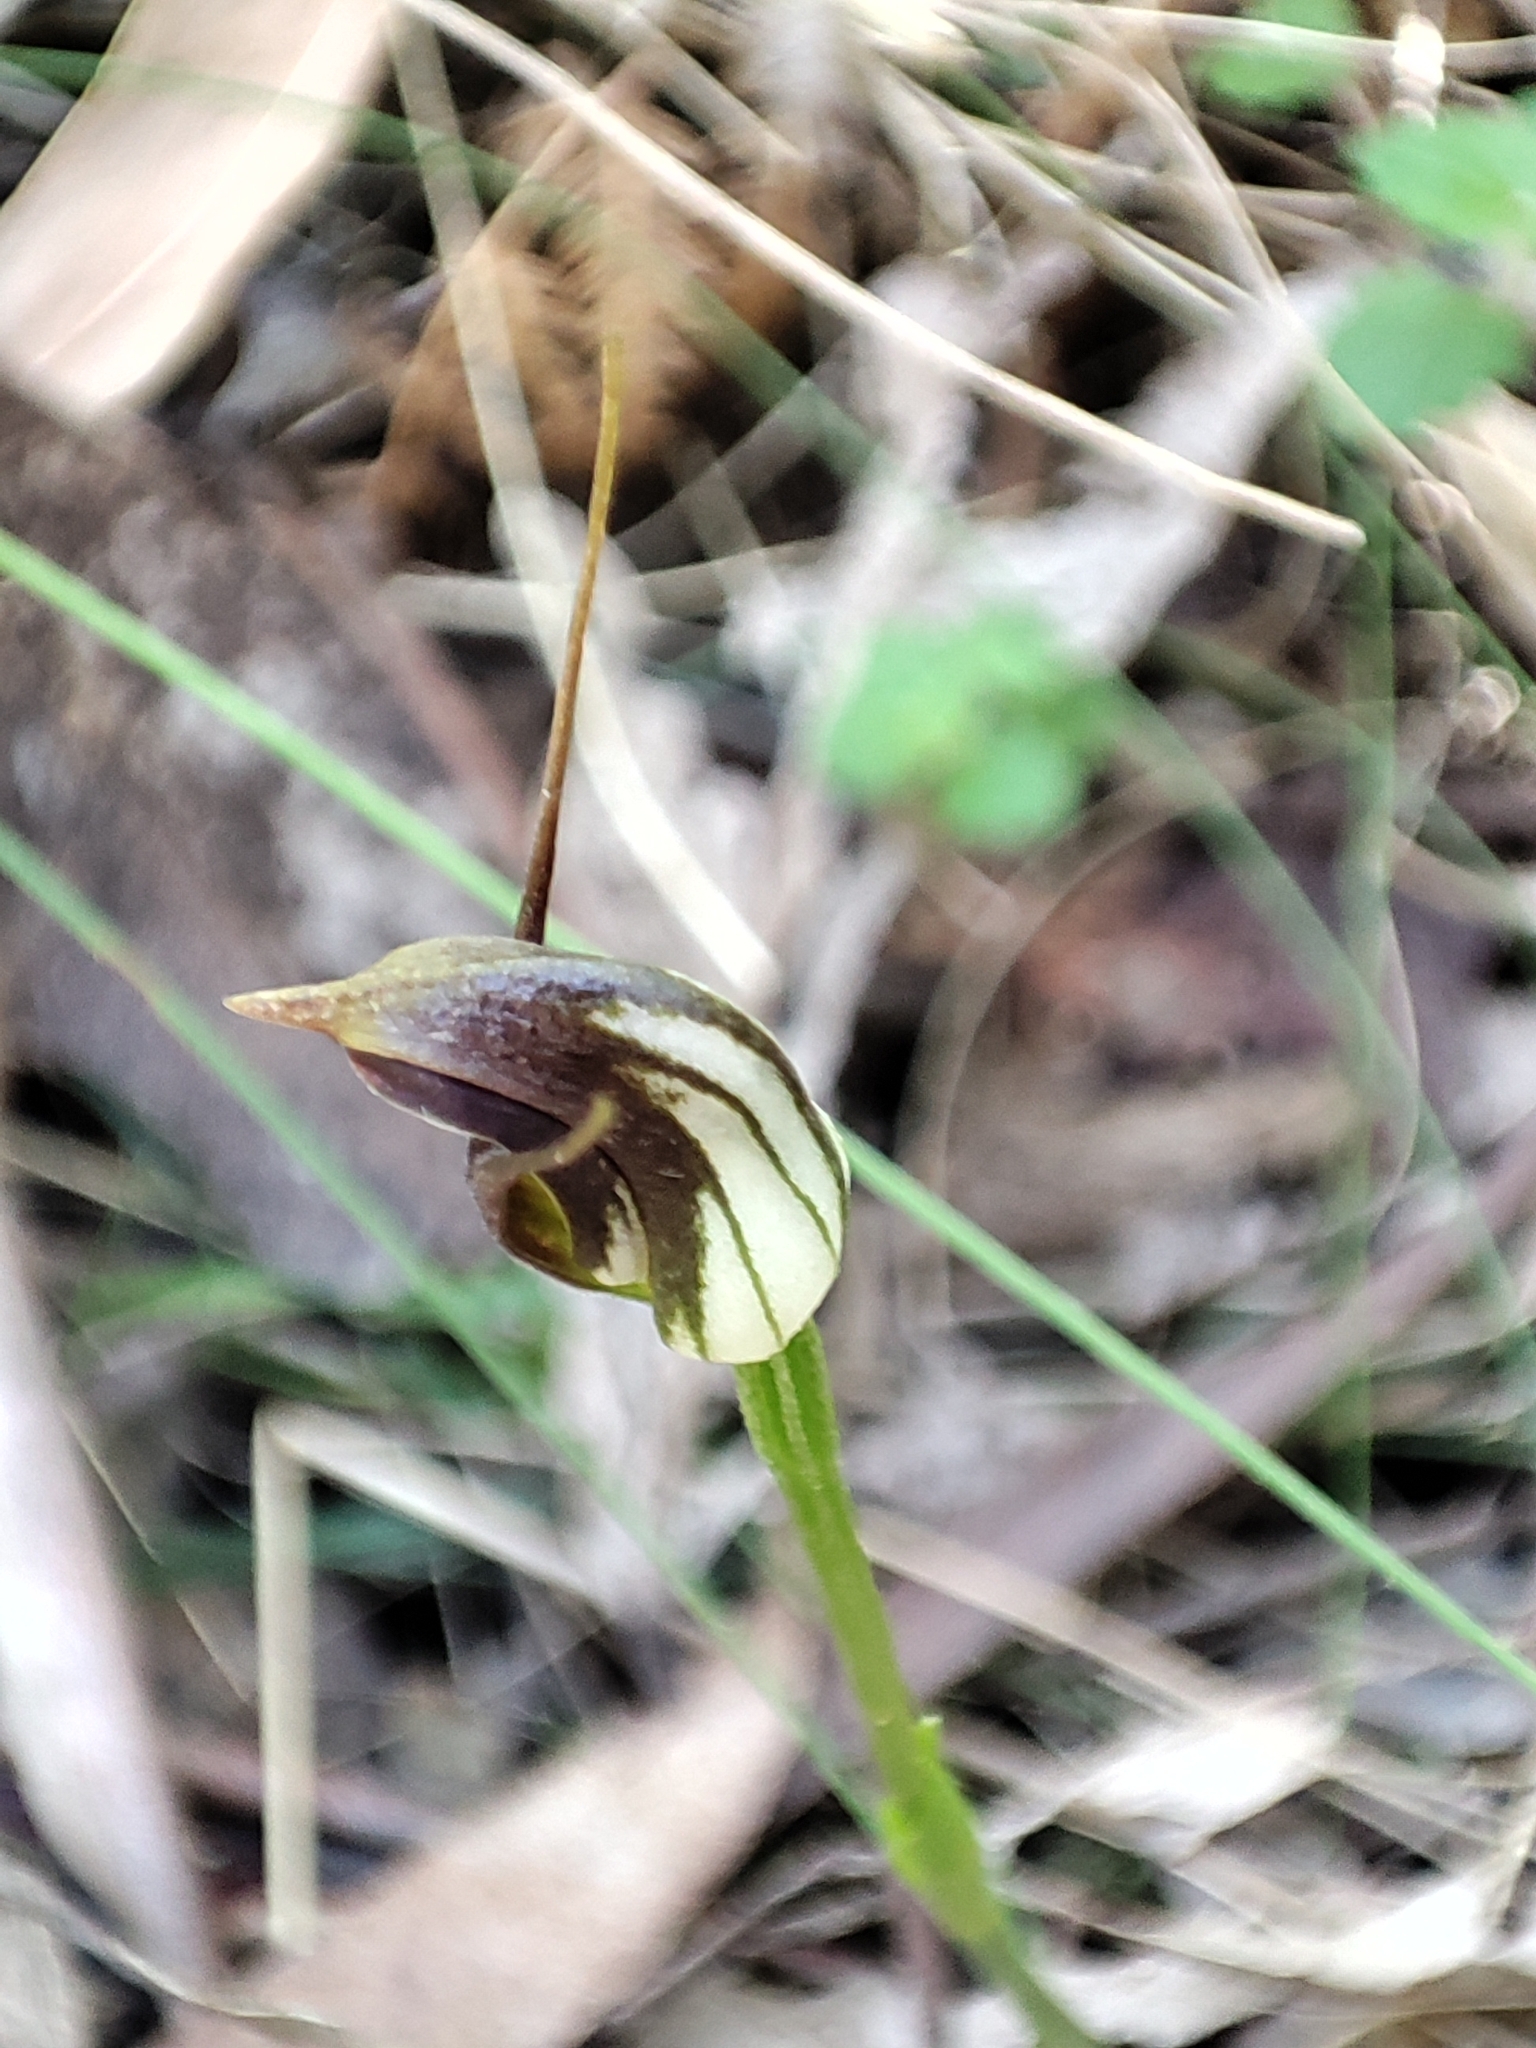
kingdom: Plantae
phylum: Tracheophyta
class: Liliopsida
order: Asparagales
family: Orchidaceae
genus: Pterostylis
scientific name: Pterostylis pedunculata
